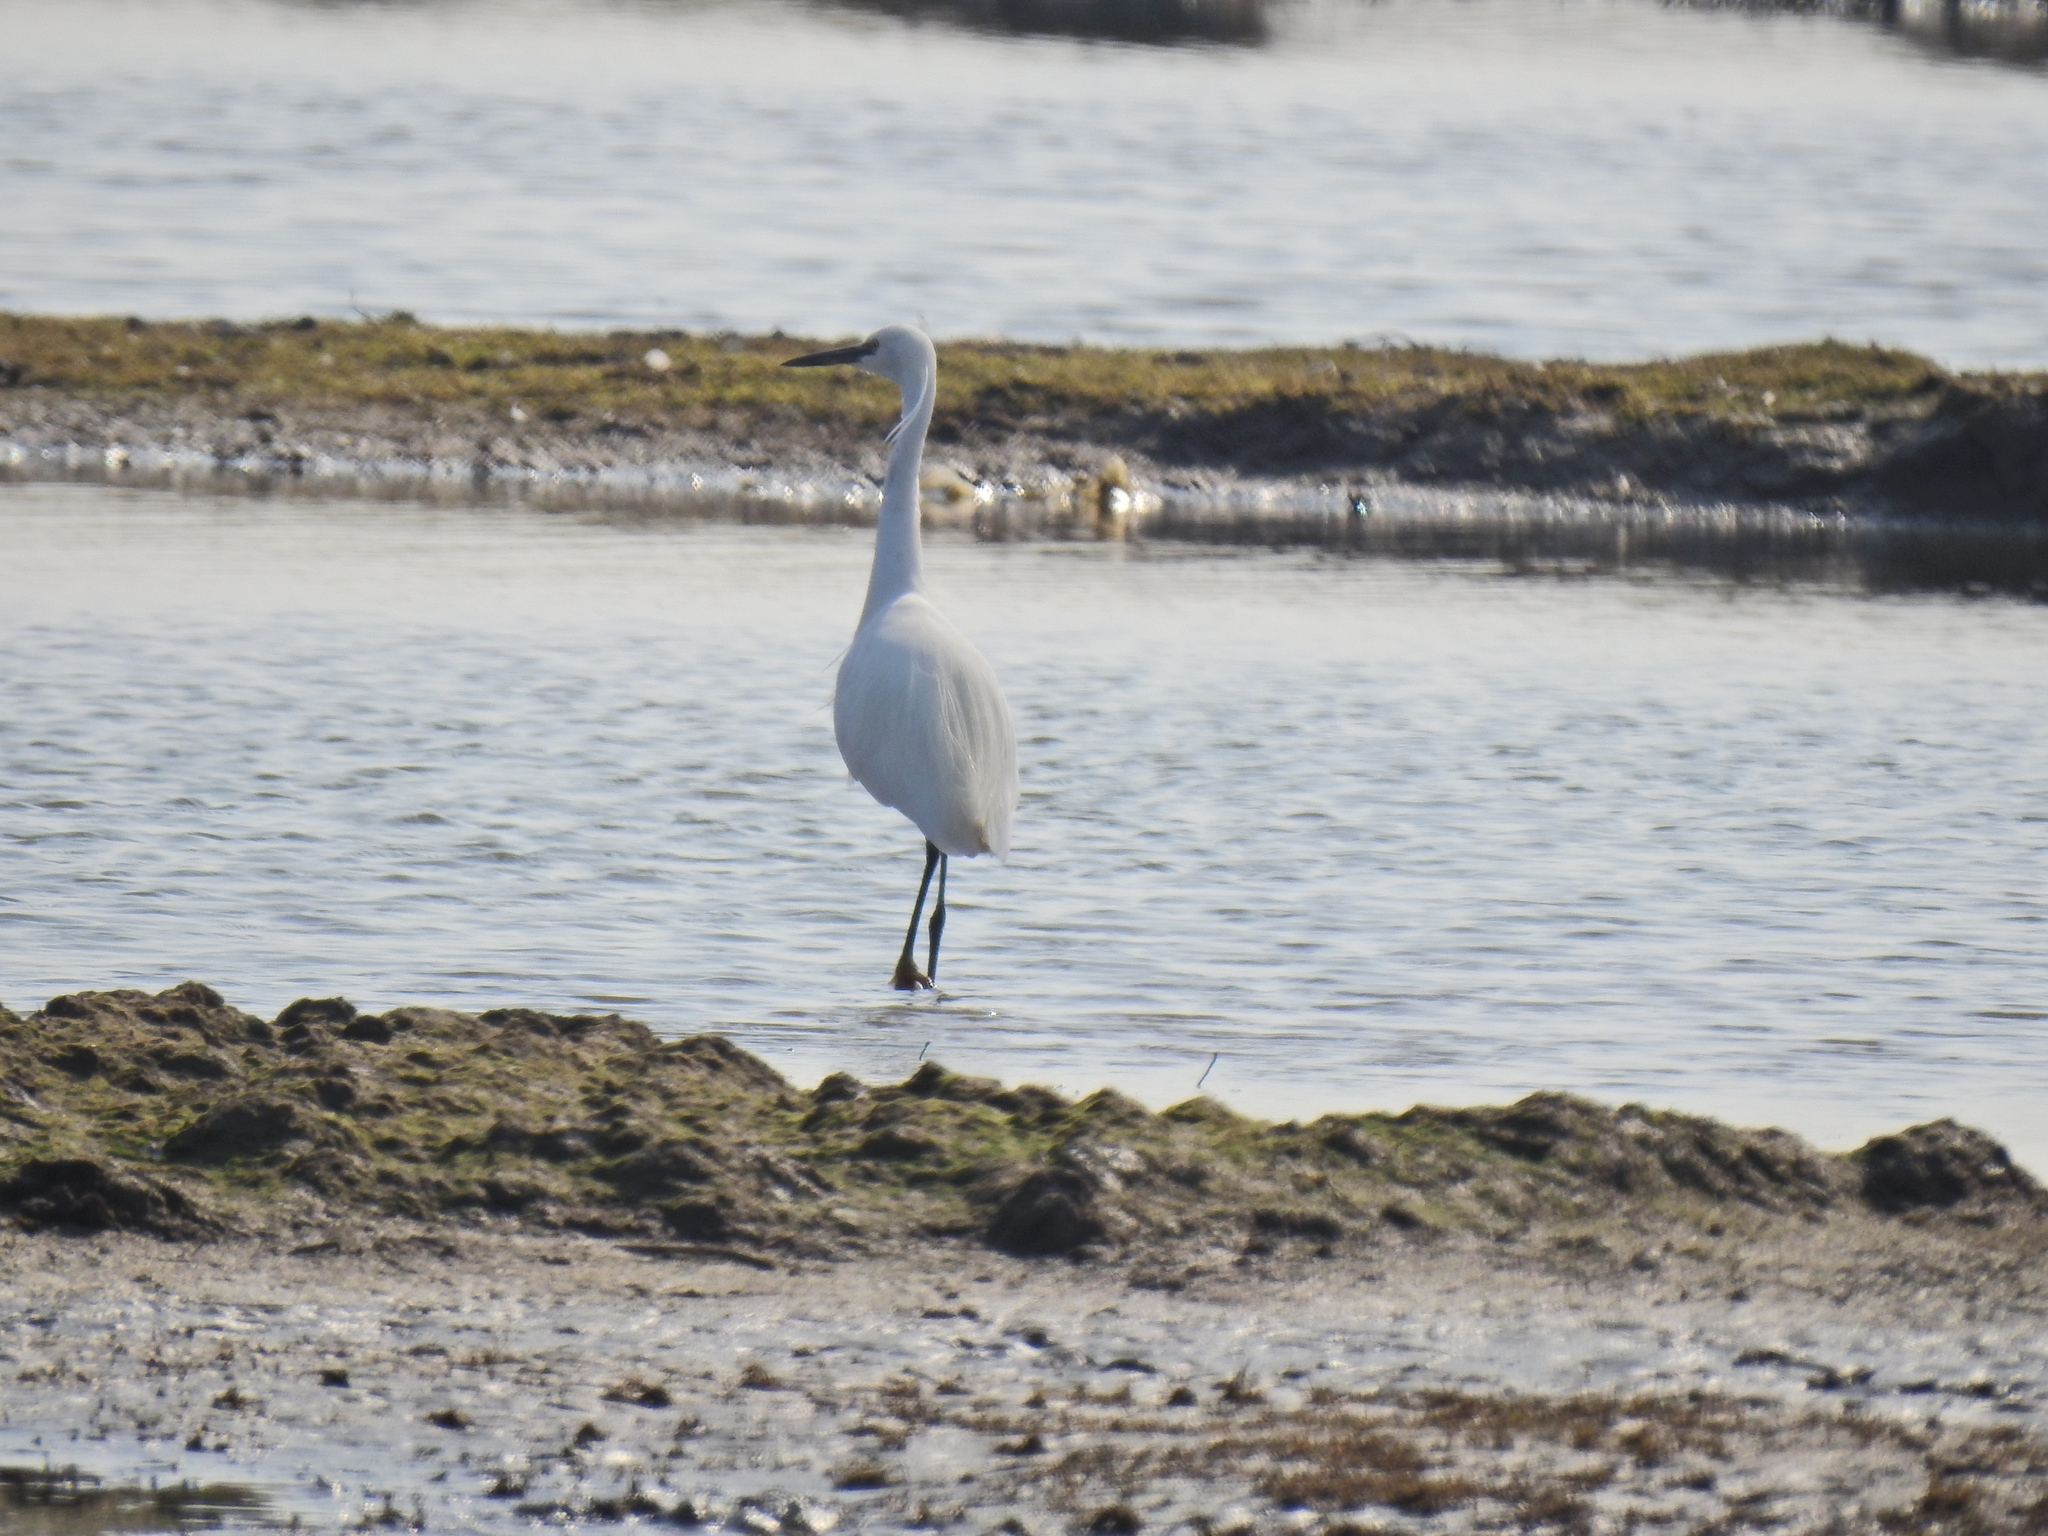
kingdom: Animalia
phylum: Chordata
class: Aves
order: Pelecaniformes
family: Ardeidae
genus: Egretta
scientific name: Egretta garzetta
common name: Little egret
